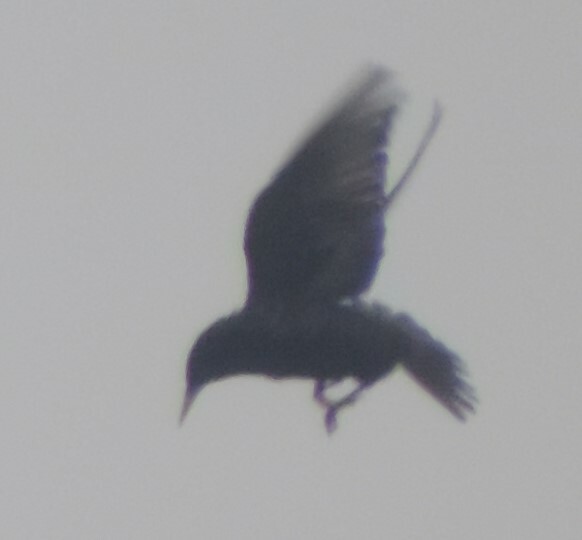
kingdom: Animalia
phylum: Chordata
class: Aves
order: Passeriformes
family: Sturnidae
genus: Sturnus
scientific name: Sturnus vulgaris
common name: Common starling
